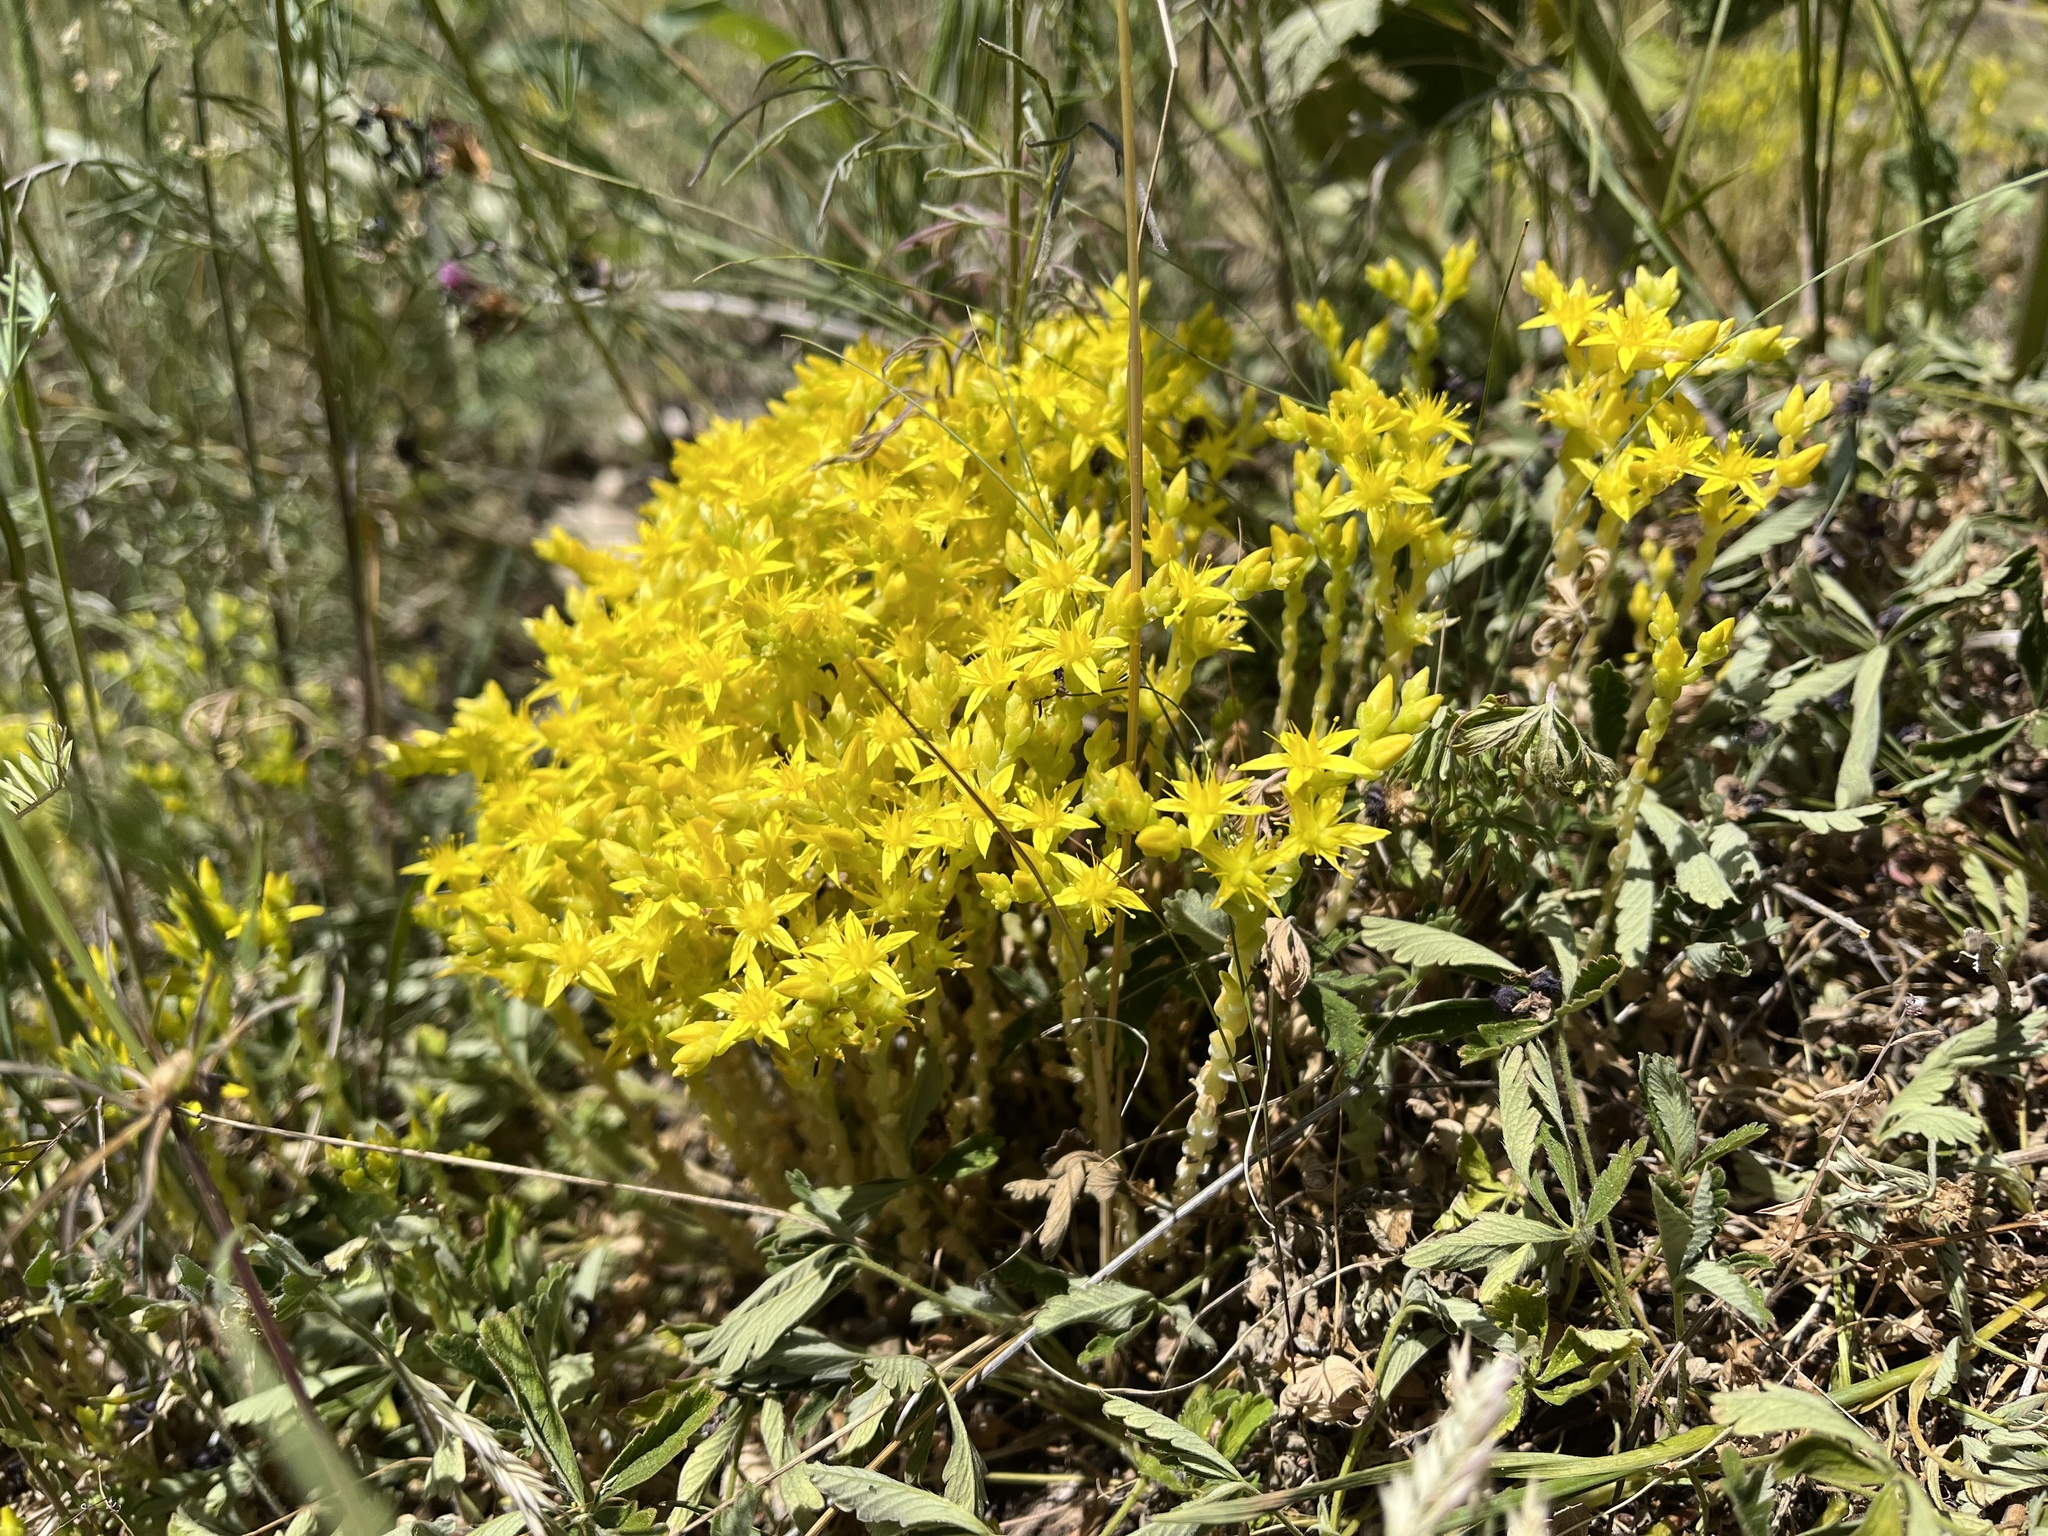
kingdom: Plantae
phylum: Tracheophyta
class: Magnoliopsida
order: Saxifragales
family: Crassulaceae
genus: Sedum
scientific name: Sedum acre
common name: Biting stonecrop
